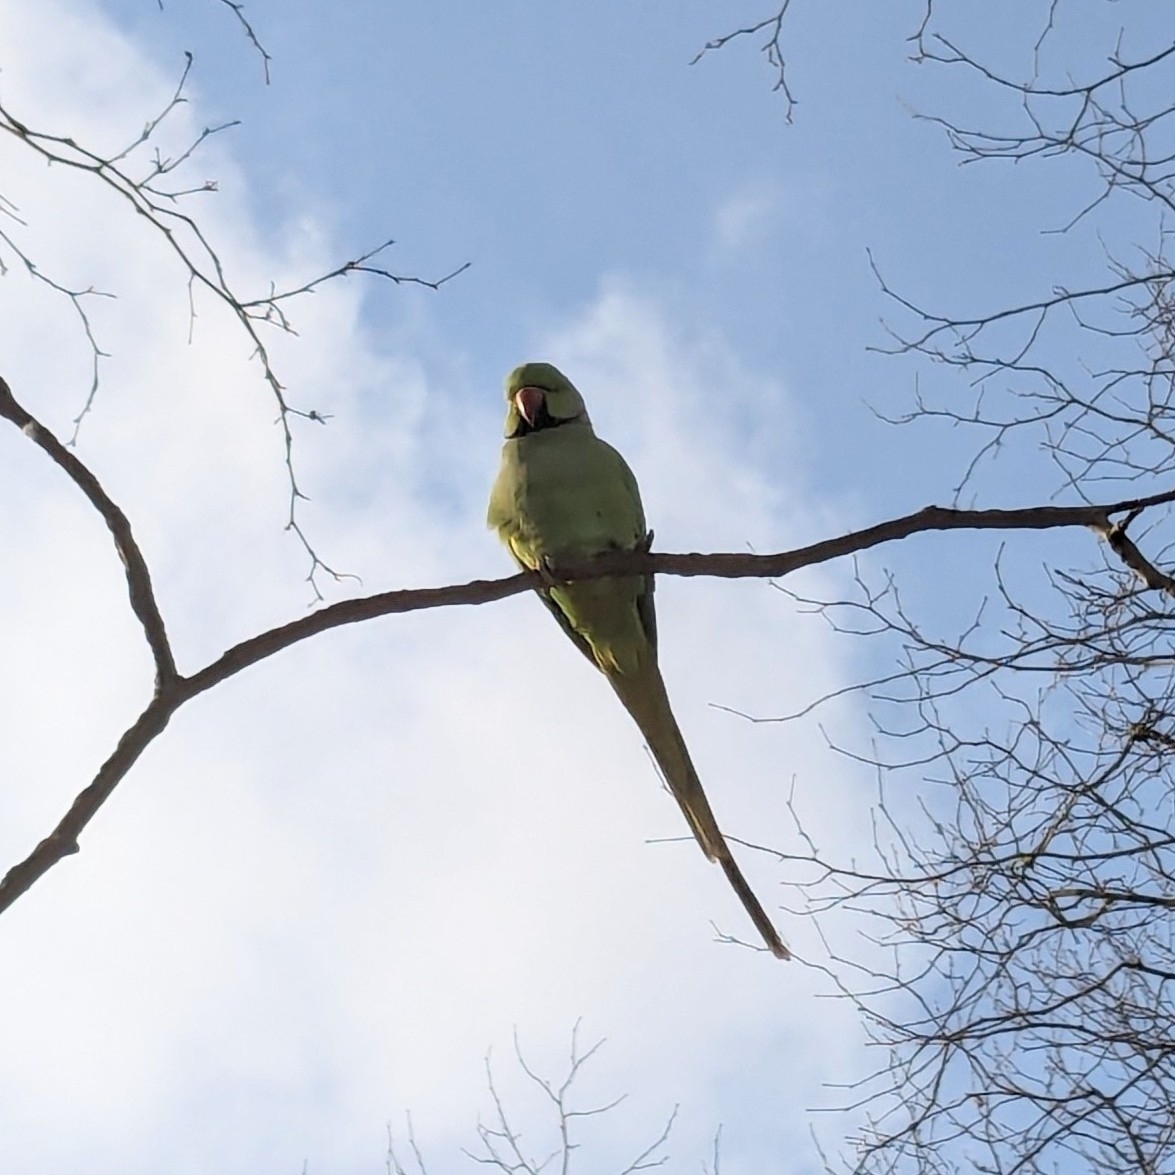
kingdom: Animalia
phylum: Chordata
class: Aves
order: Psittaciformes
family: Psittacidae
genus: Psittacula
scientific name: Psittacula krameri
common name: Rose-ringed parakeet
